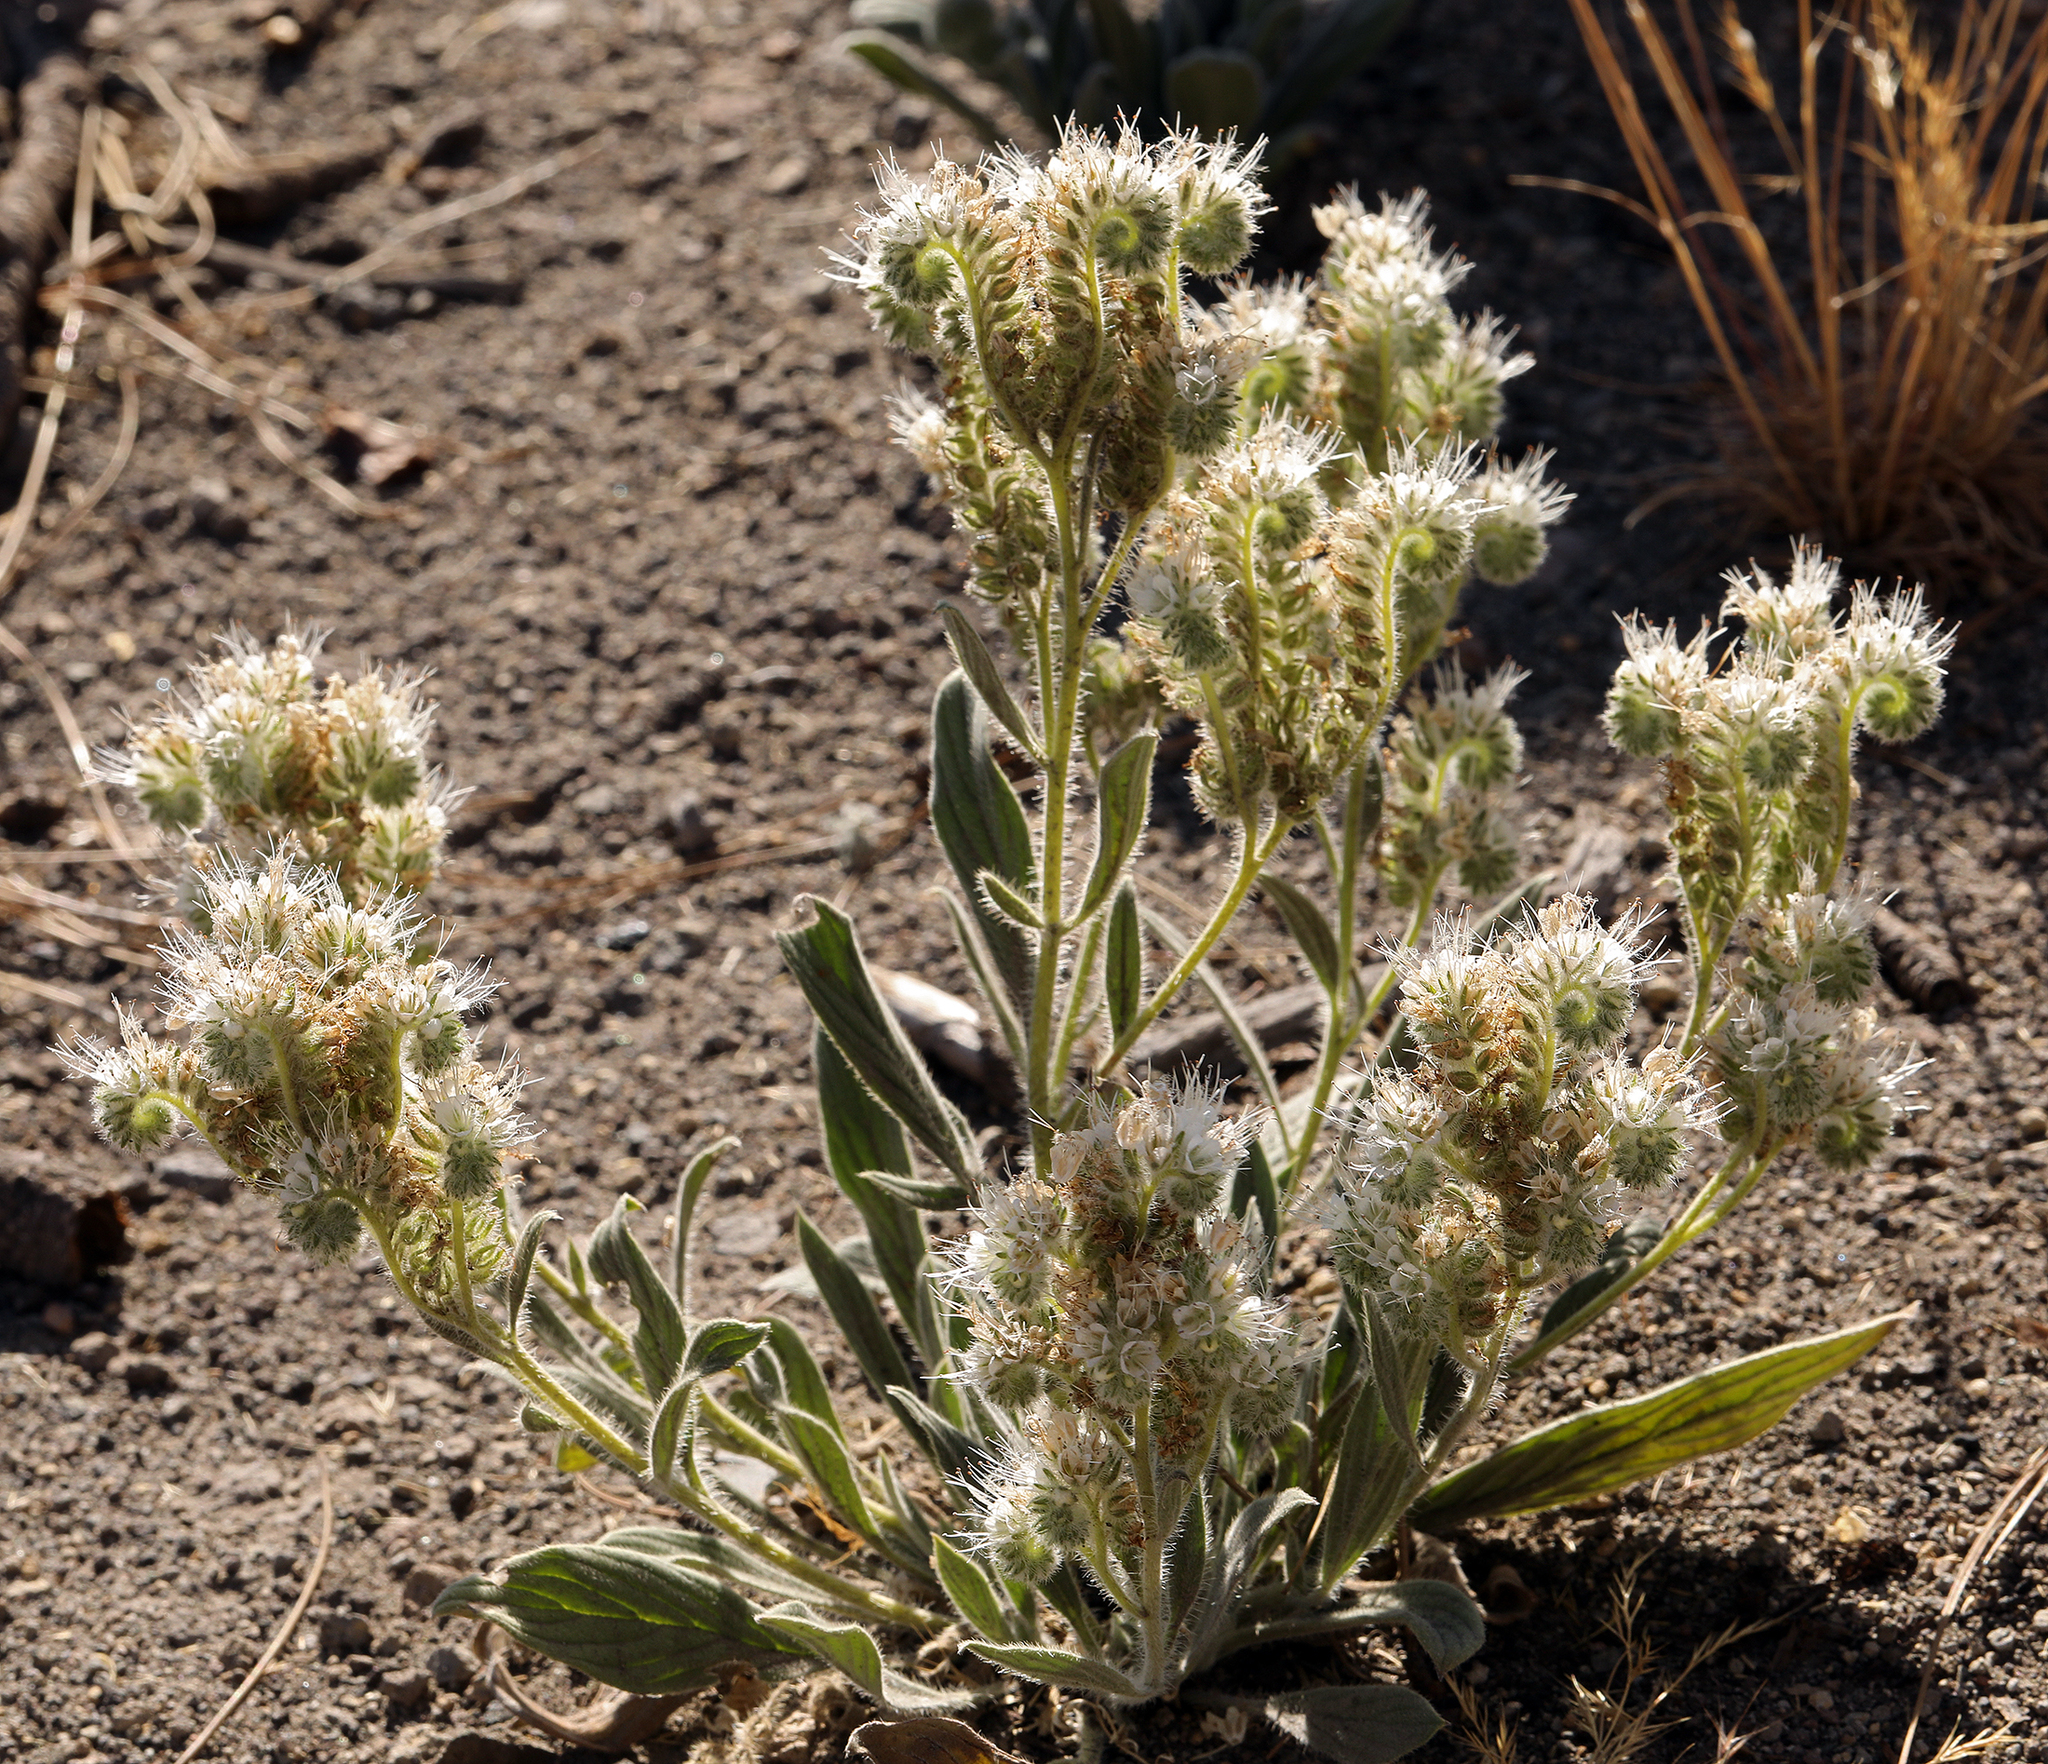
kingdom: Plantae
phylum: Tracheophyta
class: Magnoliopsida
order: Boraginales
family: Hydrophyllaceae
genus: Phacelia
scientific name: Phacelia hastata
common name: Silver-leaved phacelia
